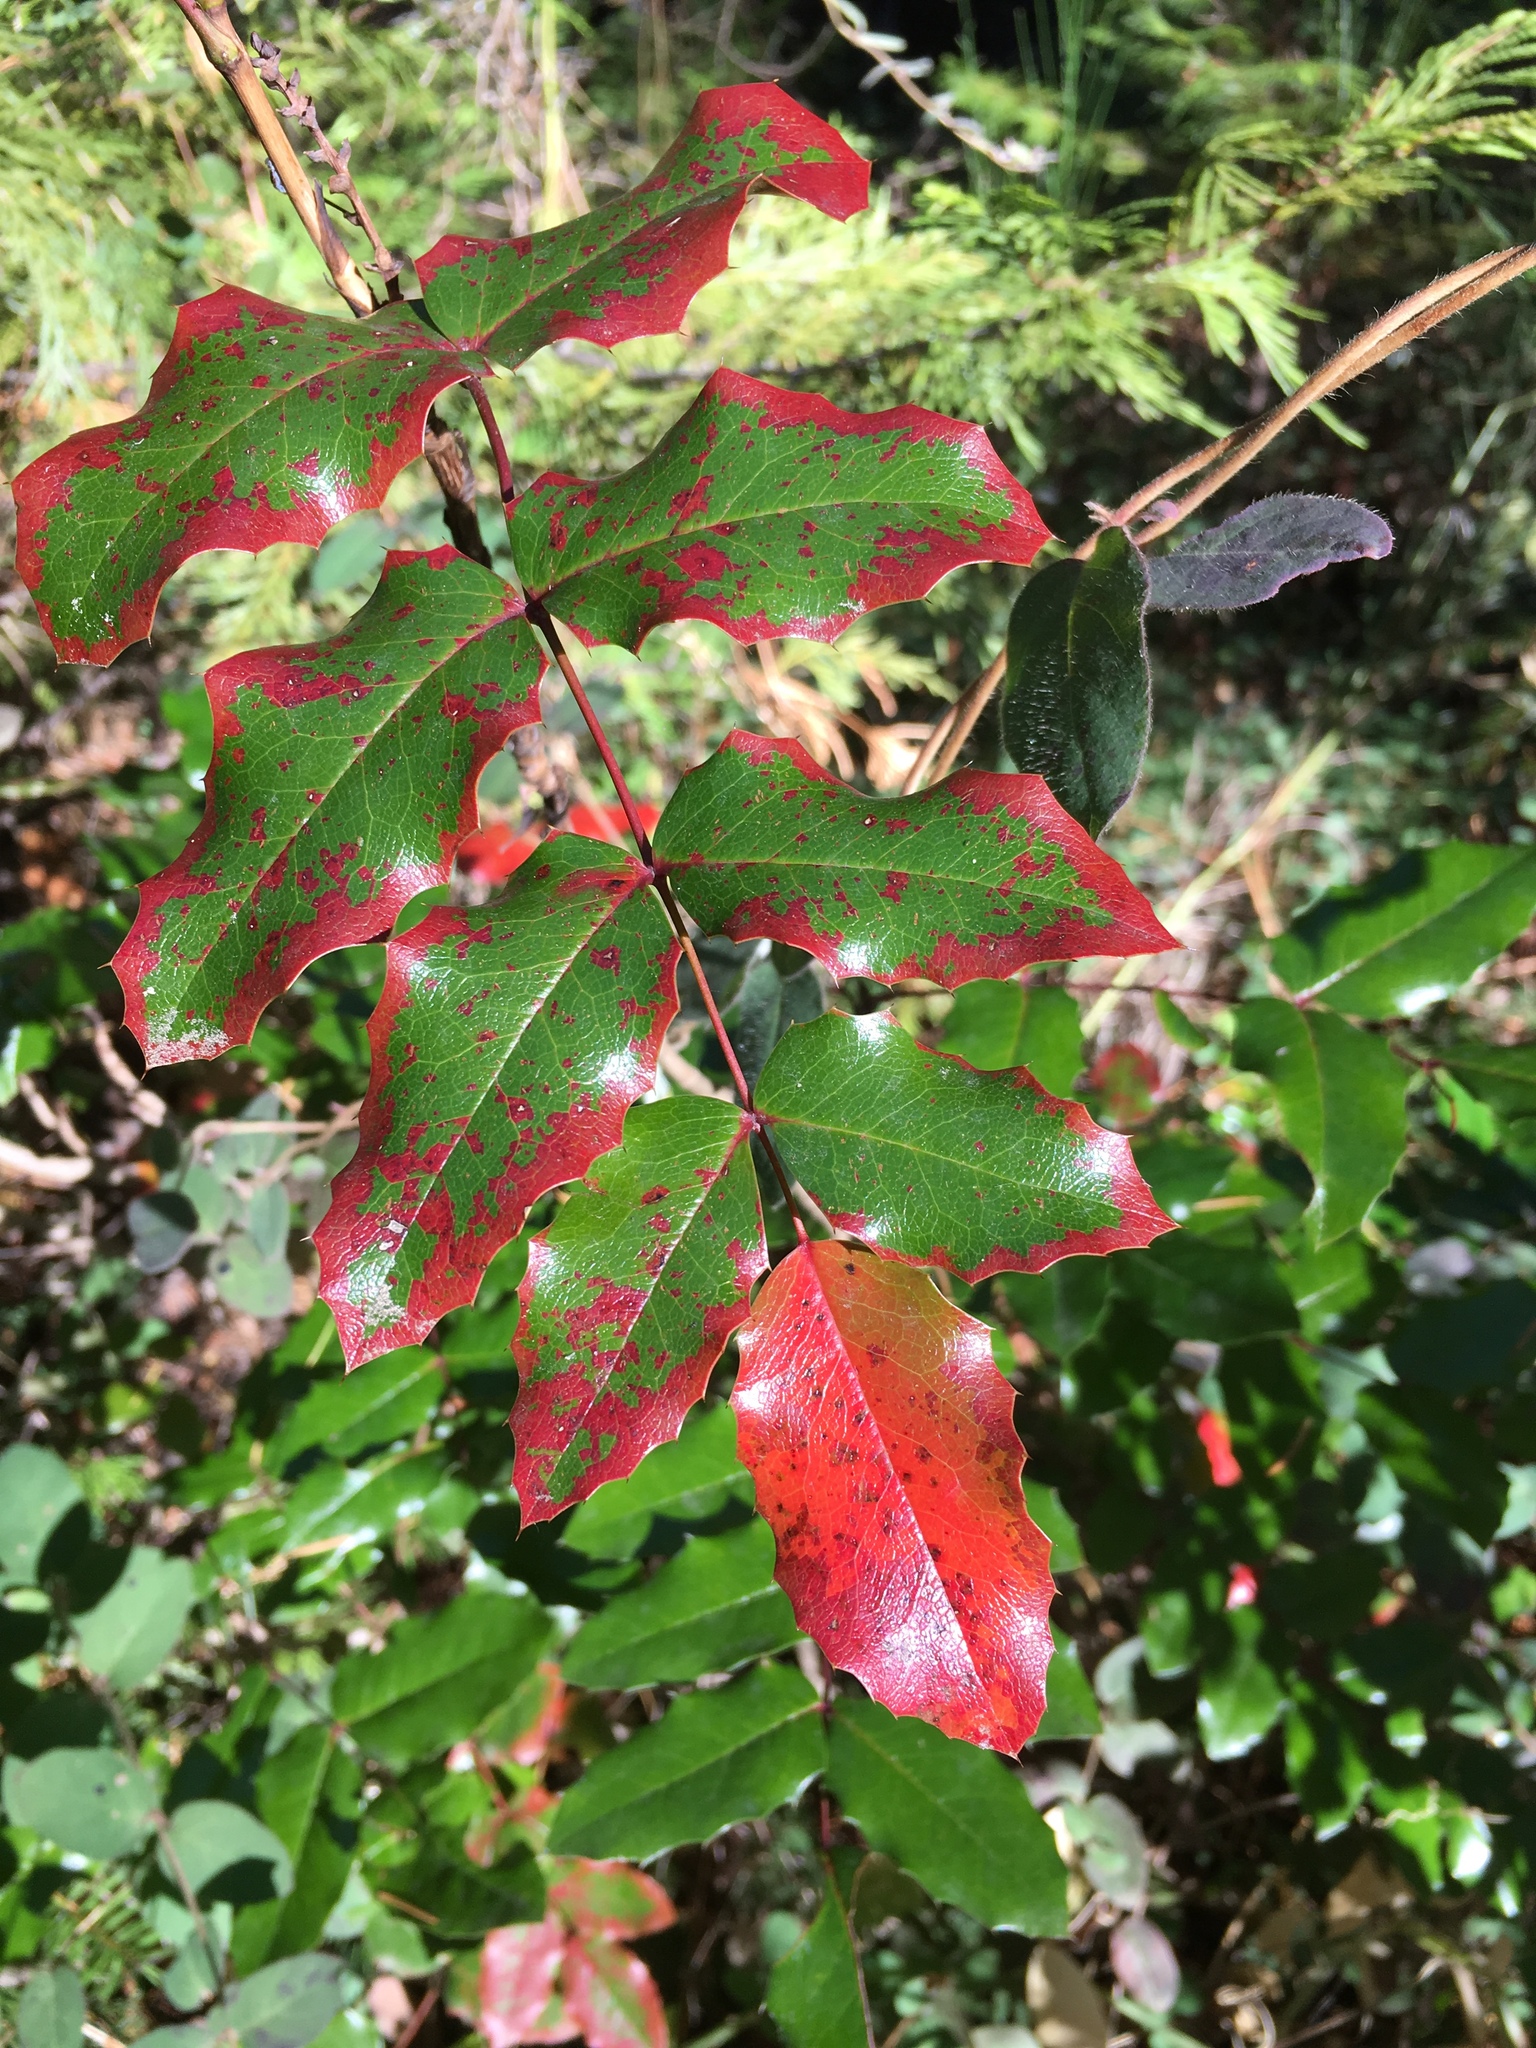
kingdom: Plantae
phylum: Tracheophyta
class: Magnoliopsida
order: Ranunculales
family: Berberidaceae
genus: Mahonia
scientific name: Mahonia aquifolium
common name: Oregon-grape
